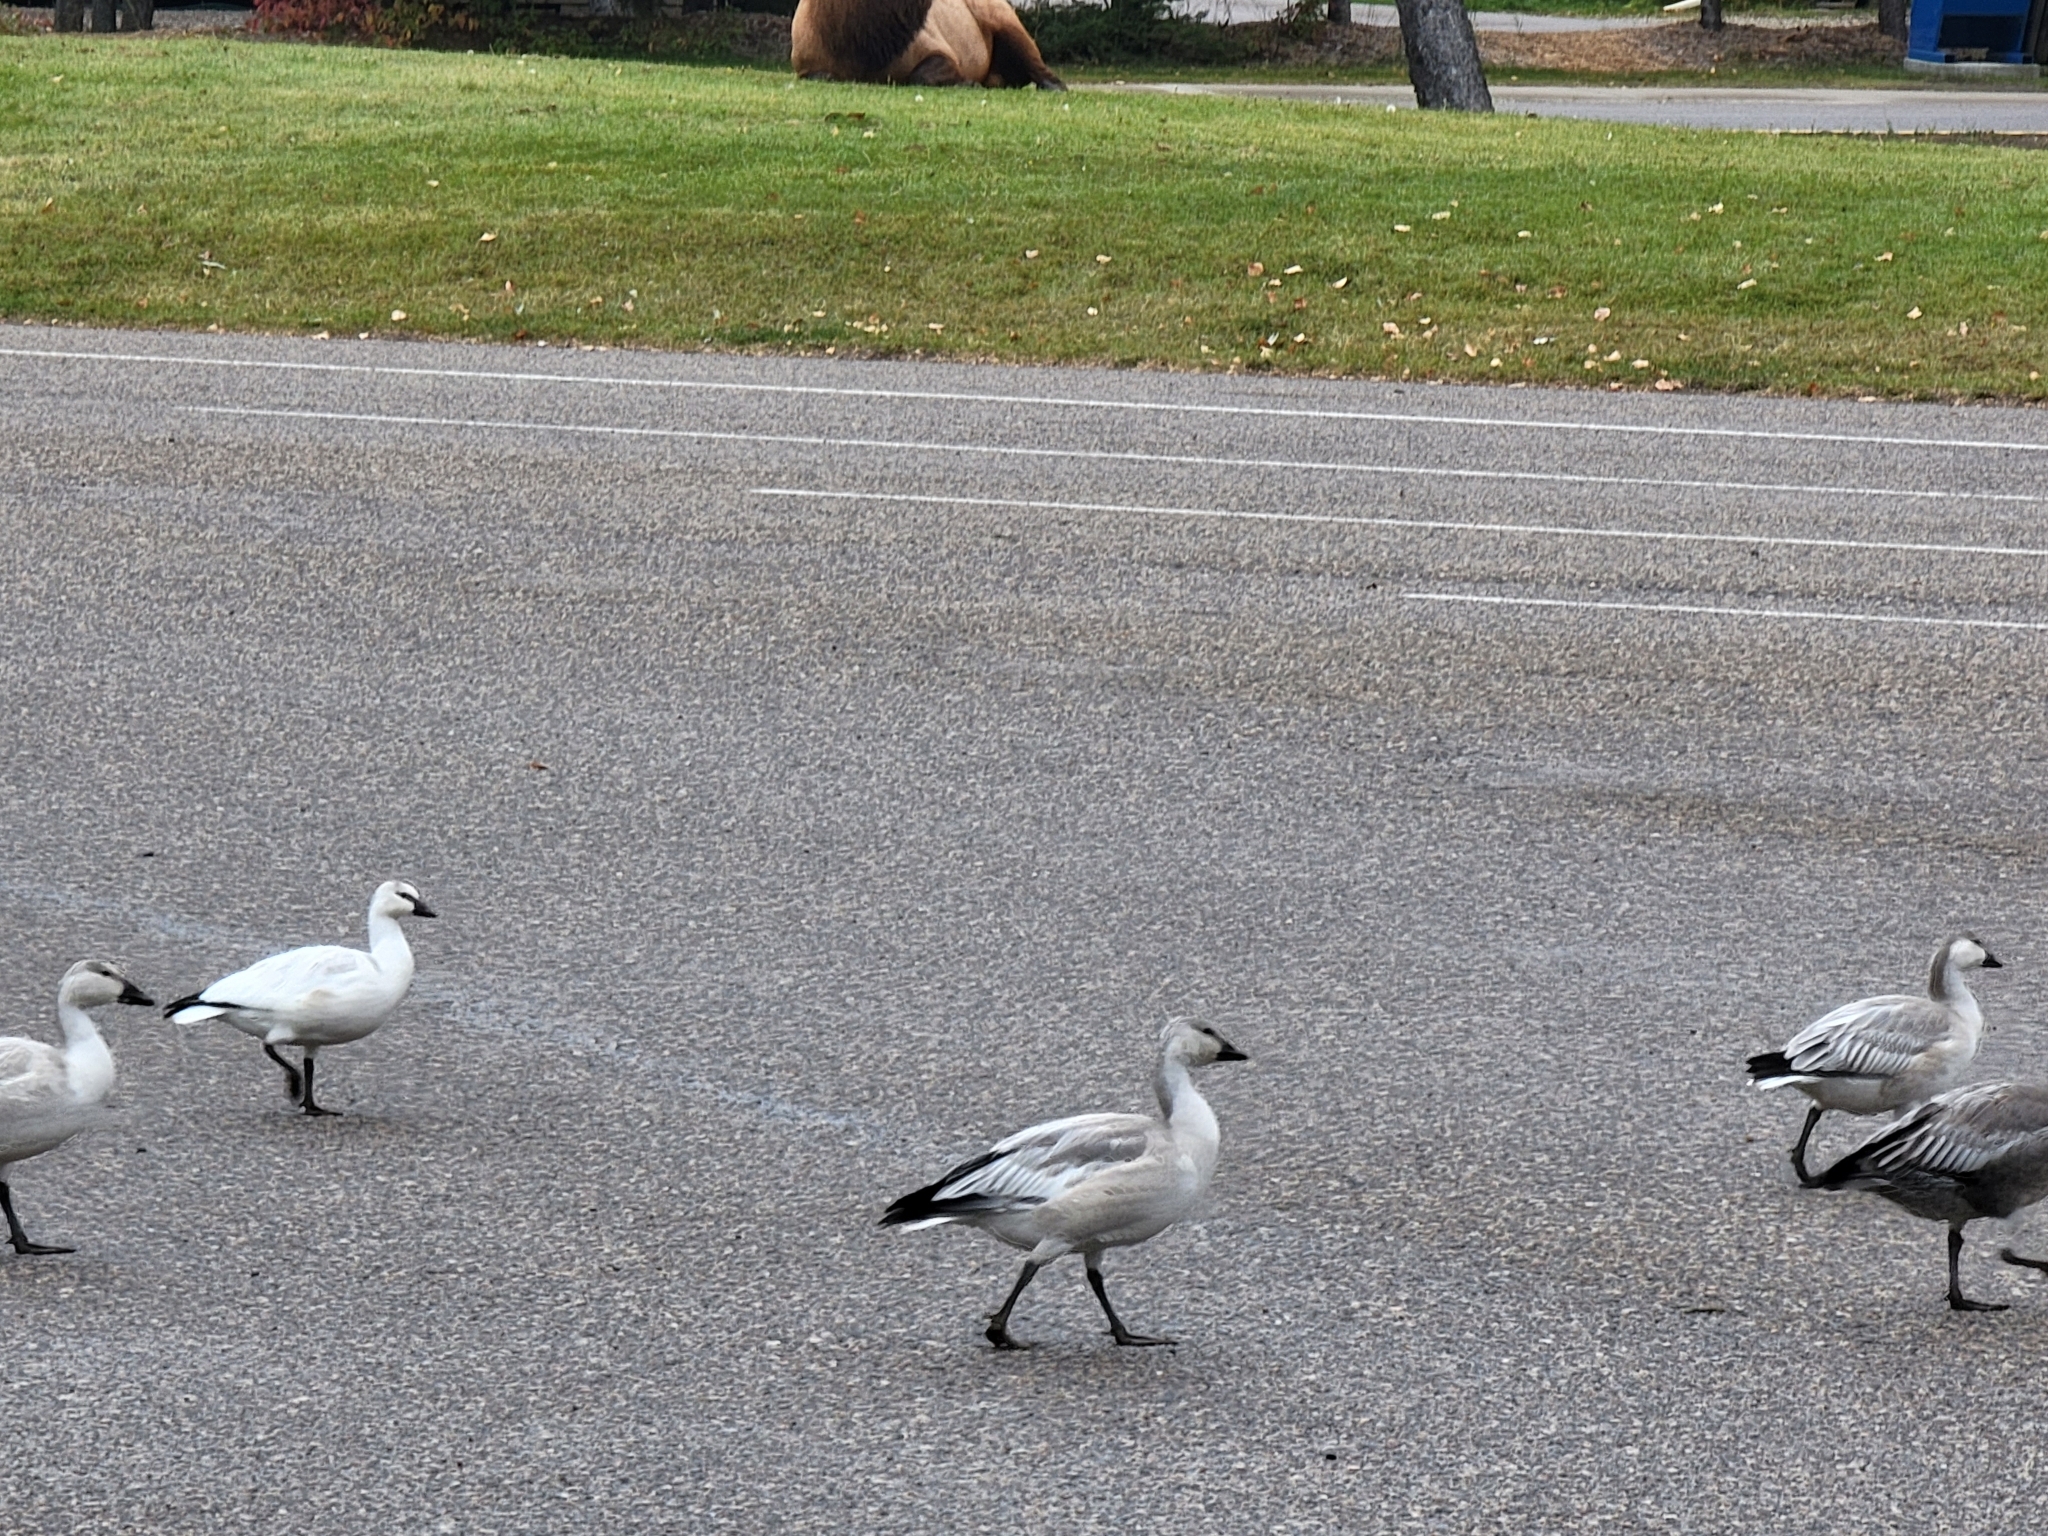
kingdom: Animalia
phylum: Chordata
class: Aves
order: Anseriformes
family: Anatidae
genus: Anser
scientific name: Anser caerulescens
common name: Snow goose
